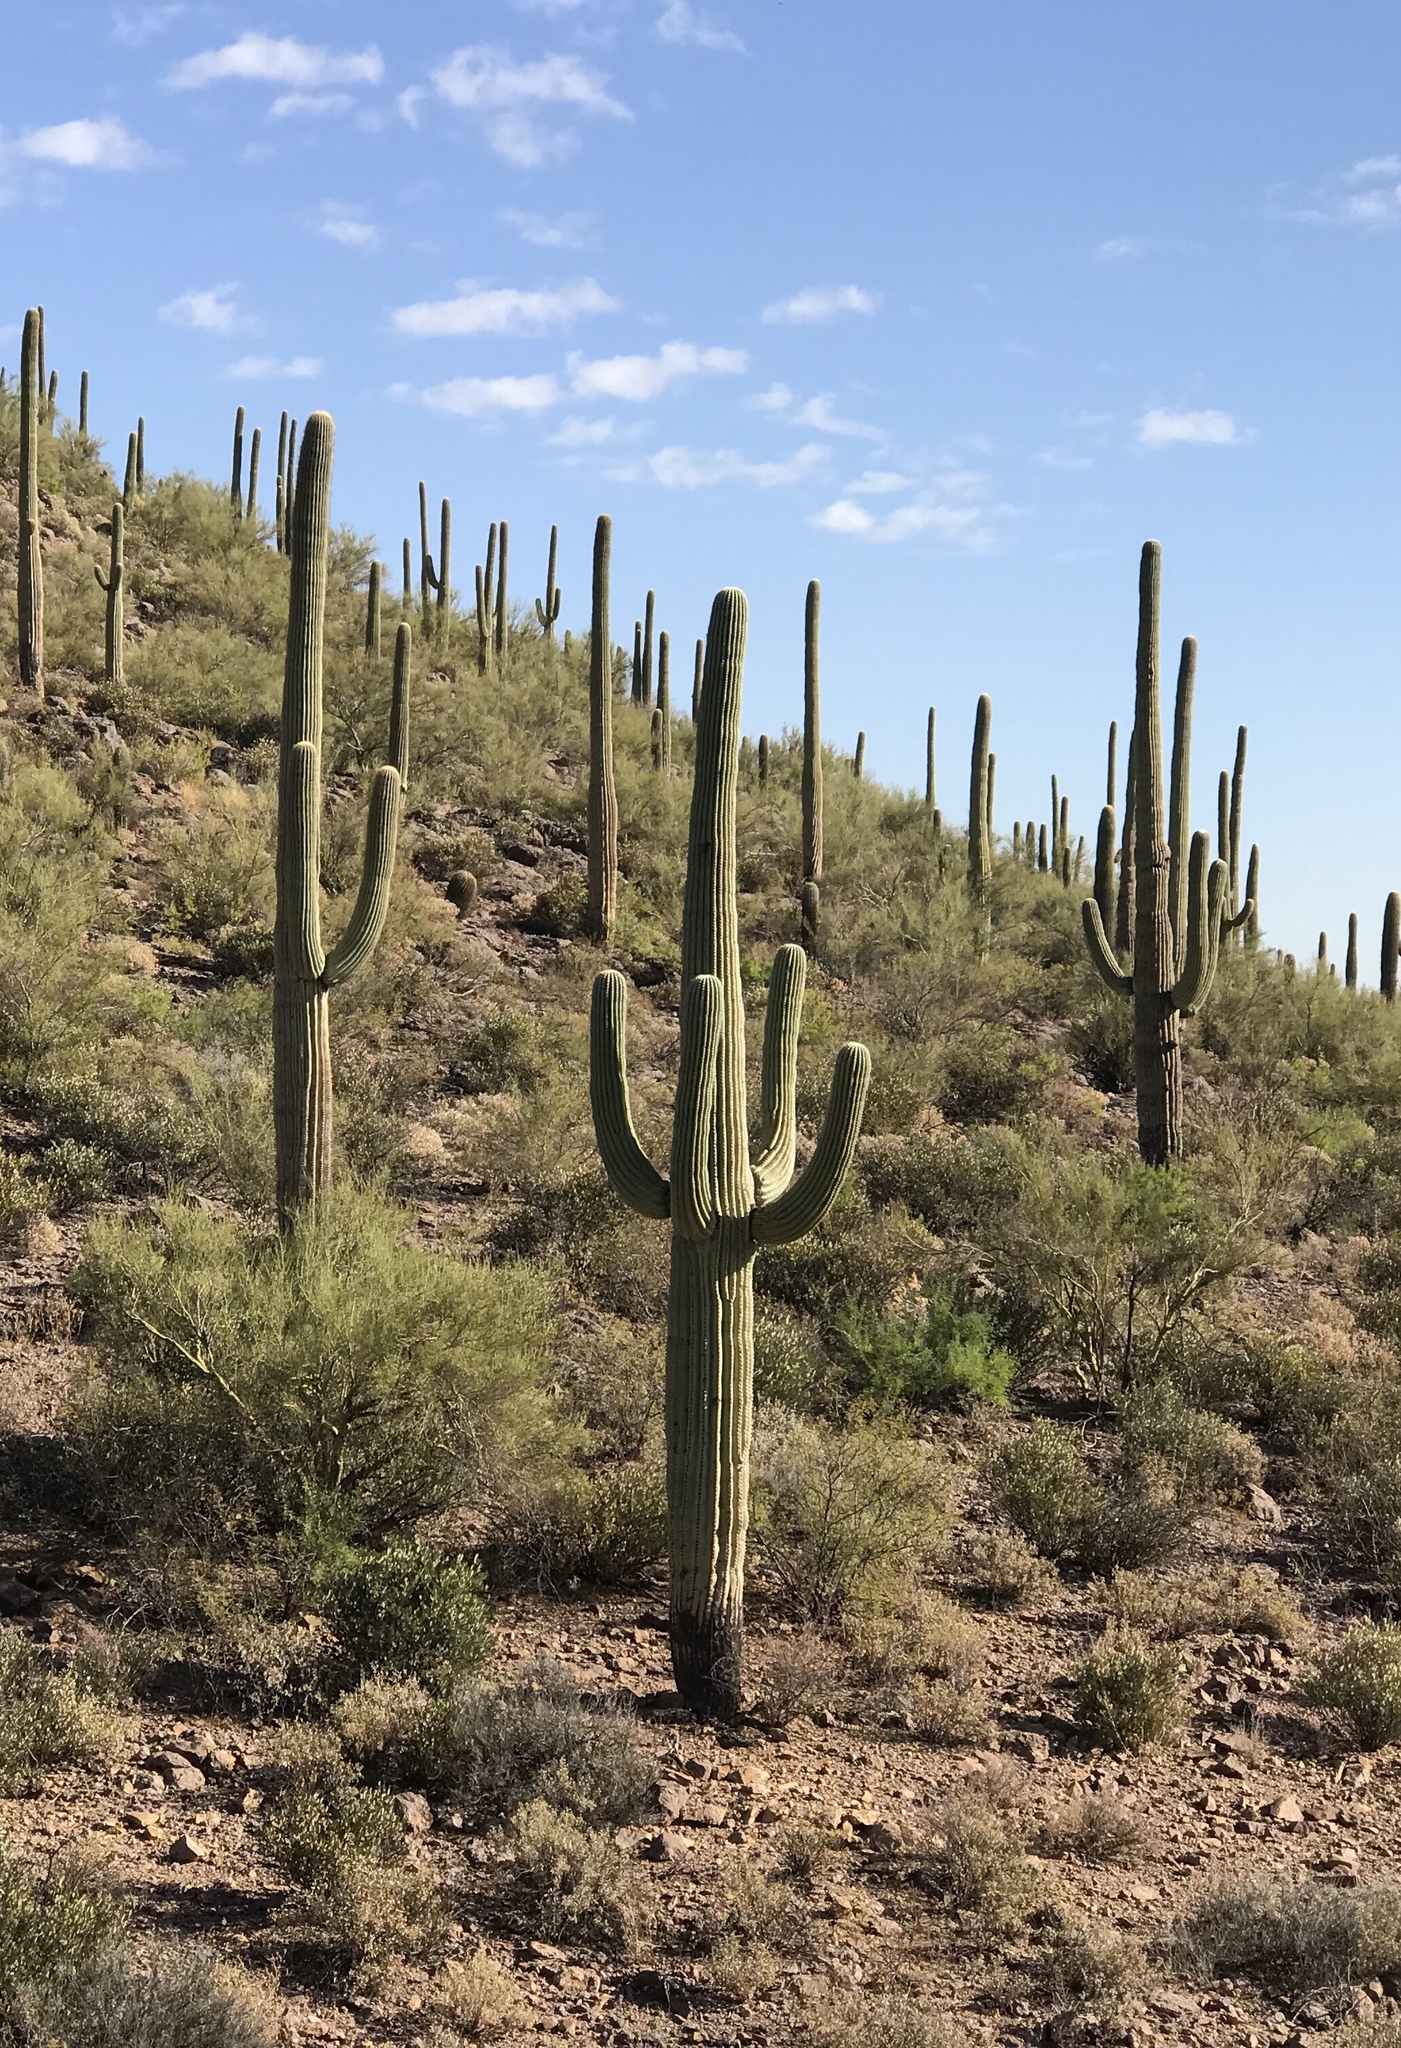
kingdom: Plantae
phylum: Tracheophyta
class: Magnoliopsida
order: Caryophyllales
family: Cactaceae
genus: Carnegiea
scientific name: Carnegiea gigantea
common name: Saguaro
